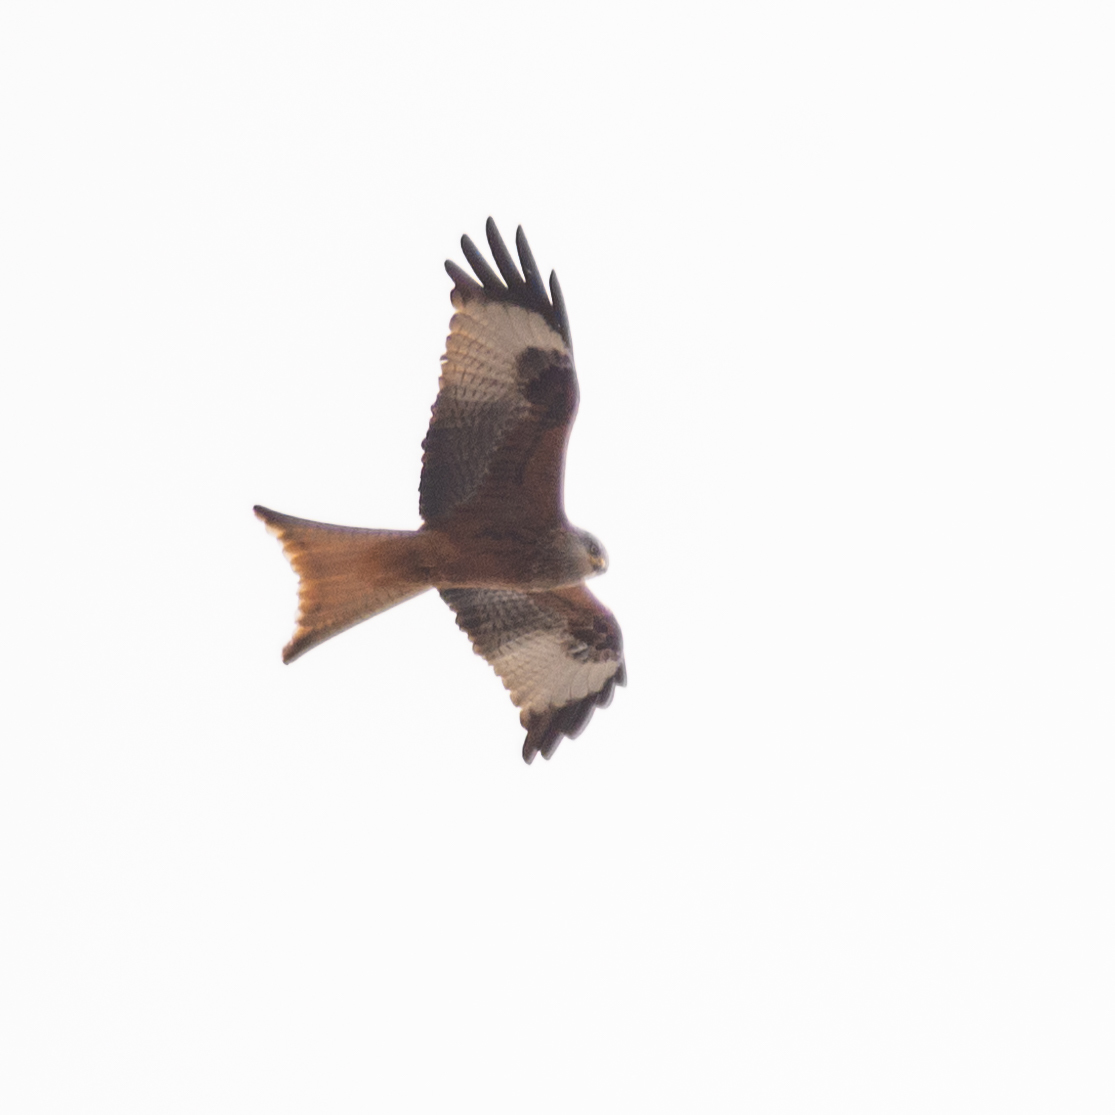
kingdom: Animalia
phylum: Chordata
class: Aves
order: Accipitriformes
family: Accipitridae
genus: Milvus
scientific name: Milvus milvus
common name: Red kite
